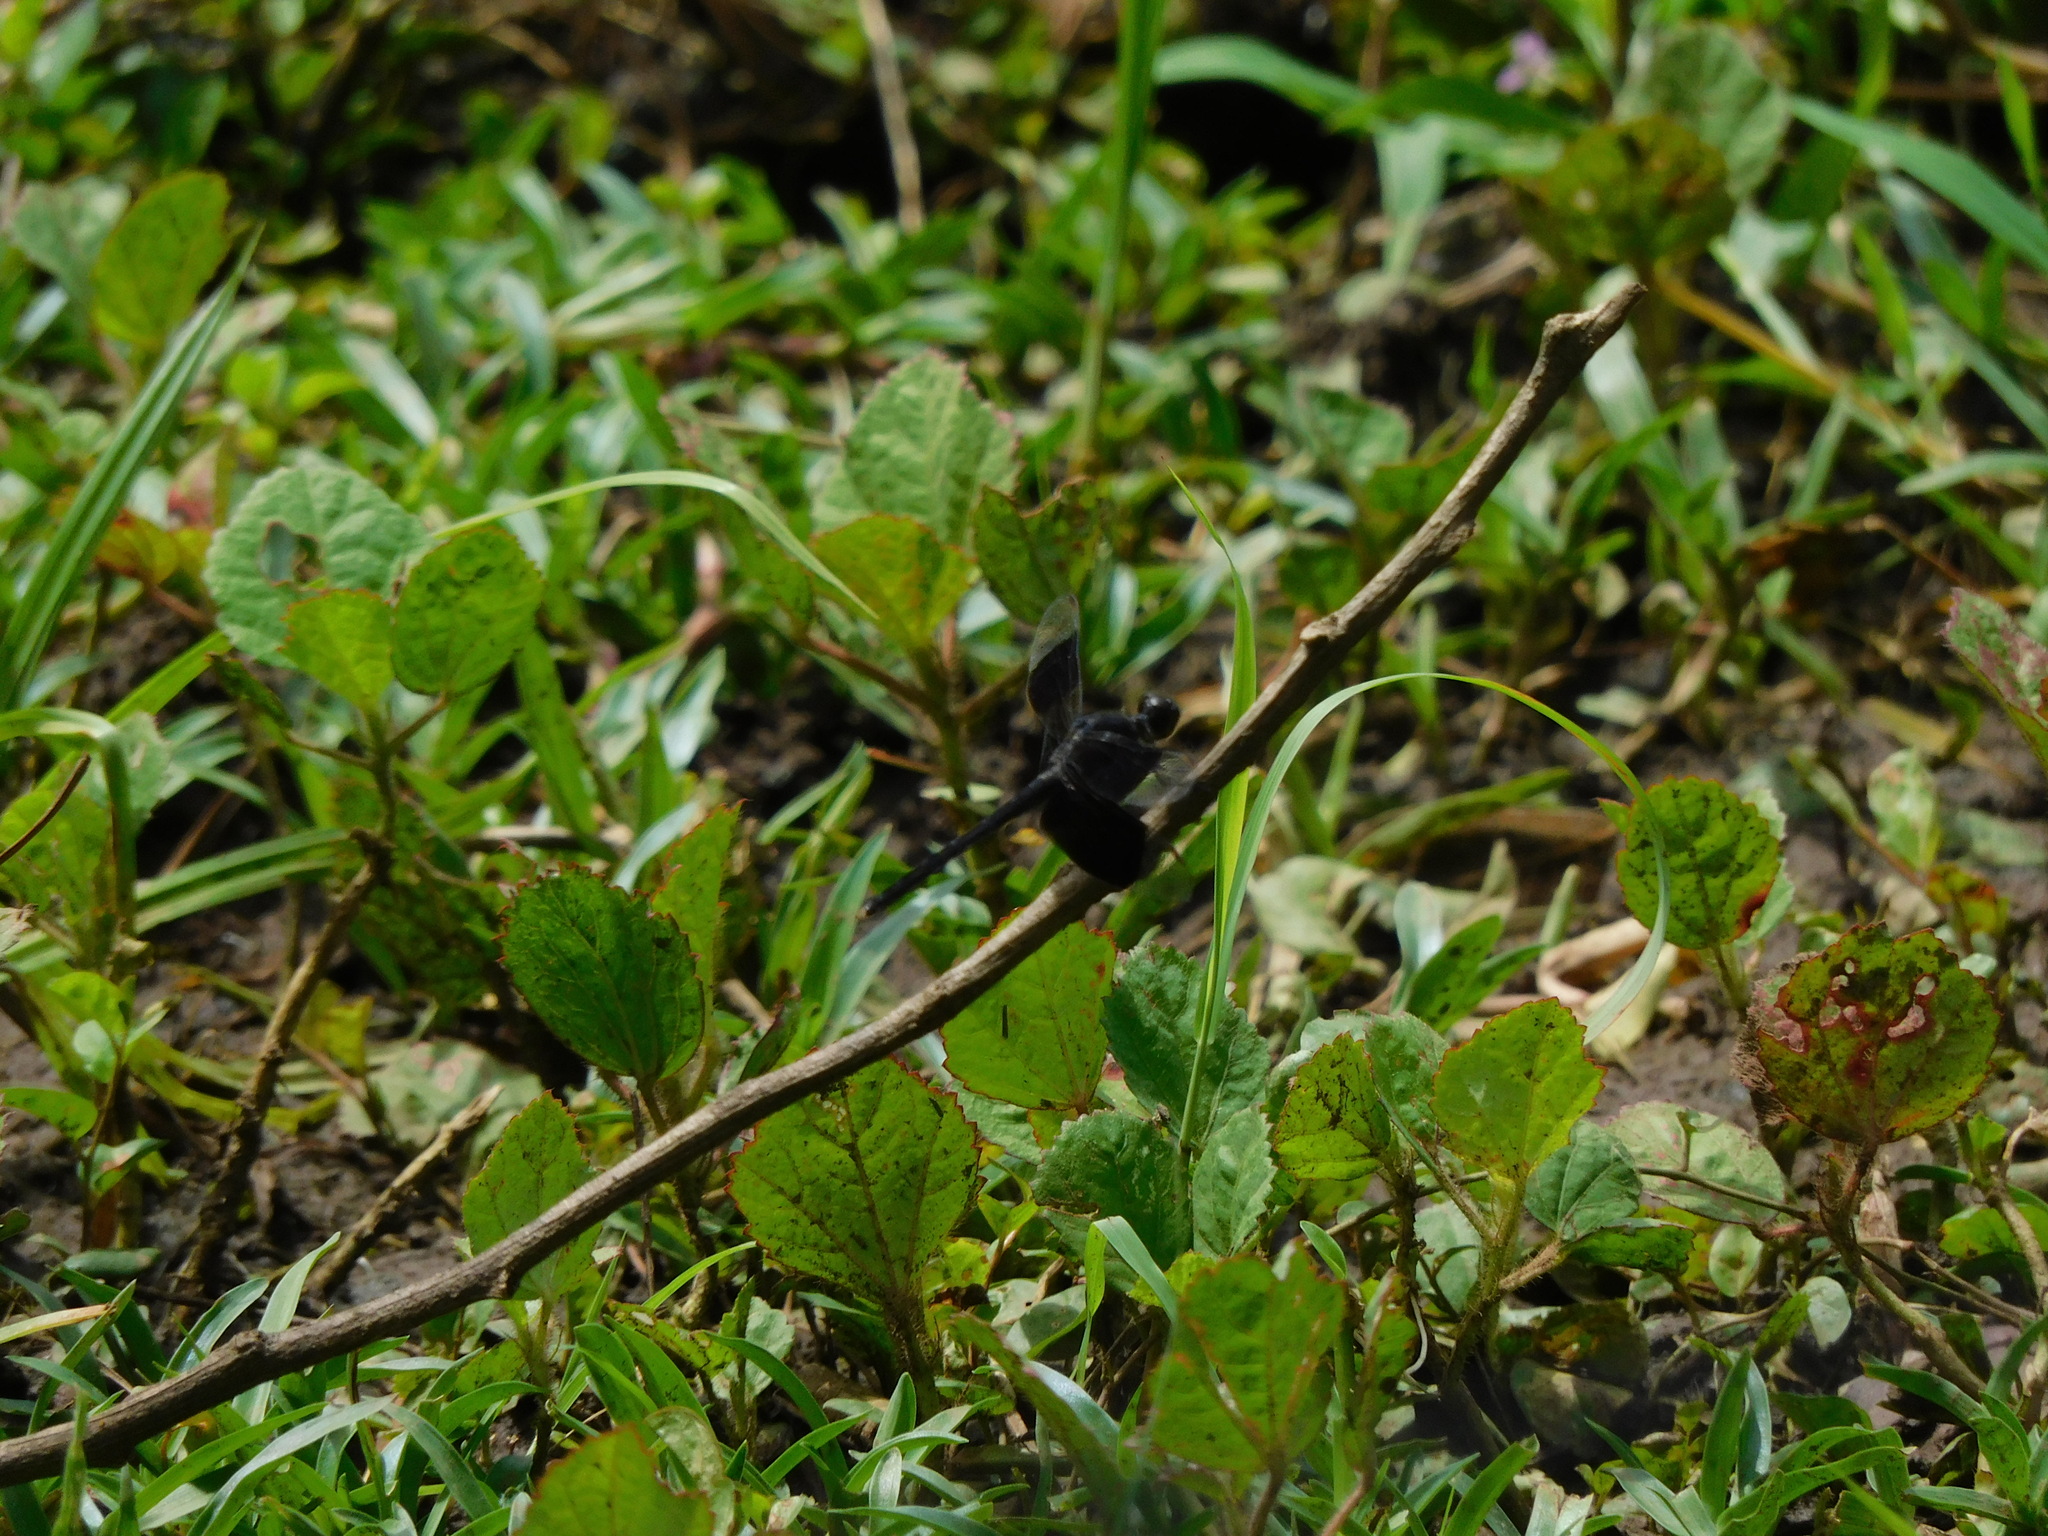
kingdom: Animalia
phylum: Arthropoda
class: Insecta
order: Odonata
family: Libellulidae
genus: Erythrodiplax
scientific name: Erythrodiplax funerea
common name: Black-winged dragonlet
